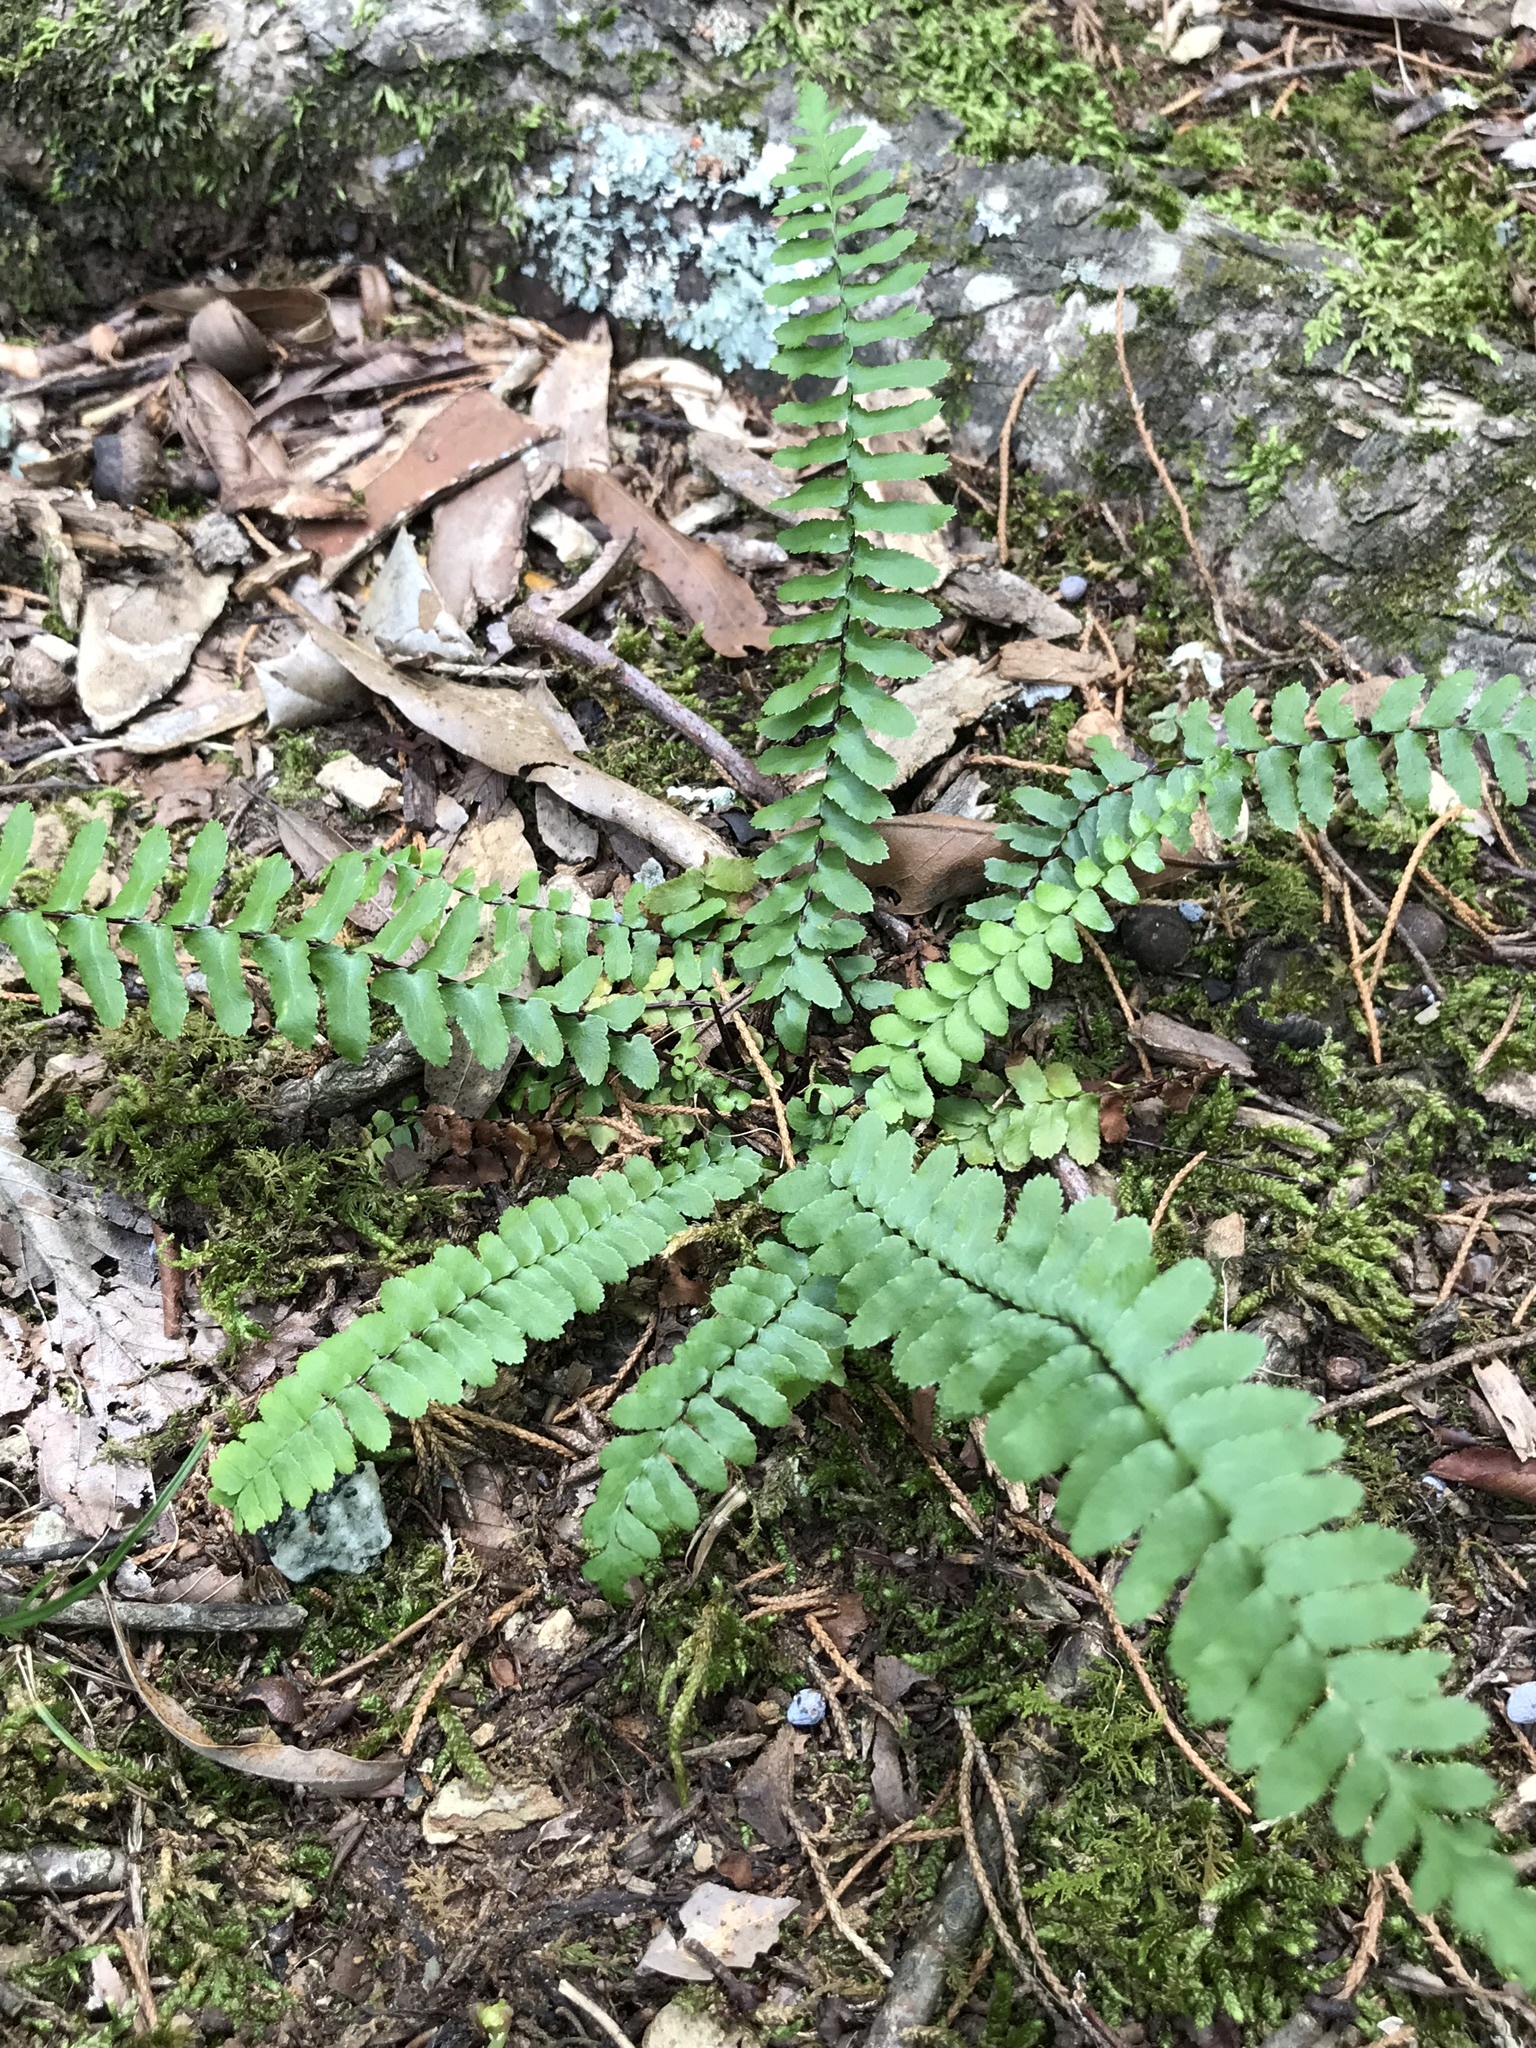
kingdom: Plantae
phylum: Tracheophyta
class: Polypodiopsida
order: Polypodiales
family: Aspleniaceae
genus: Asplenium
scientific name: Asplenium platyneuron
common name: Ebony spleenwort
